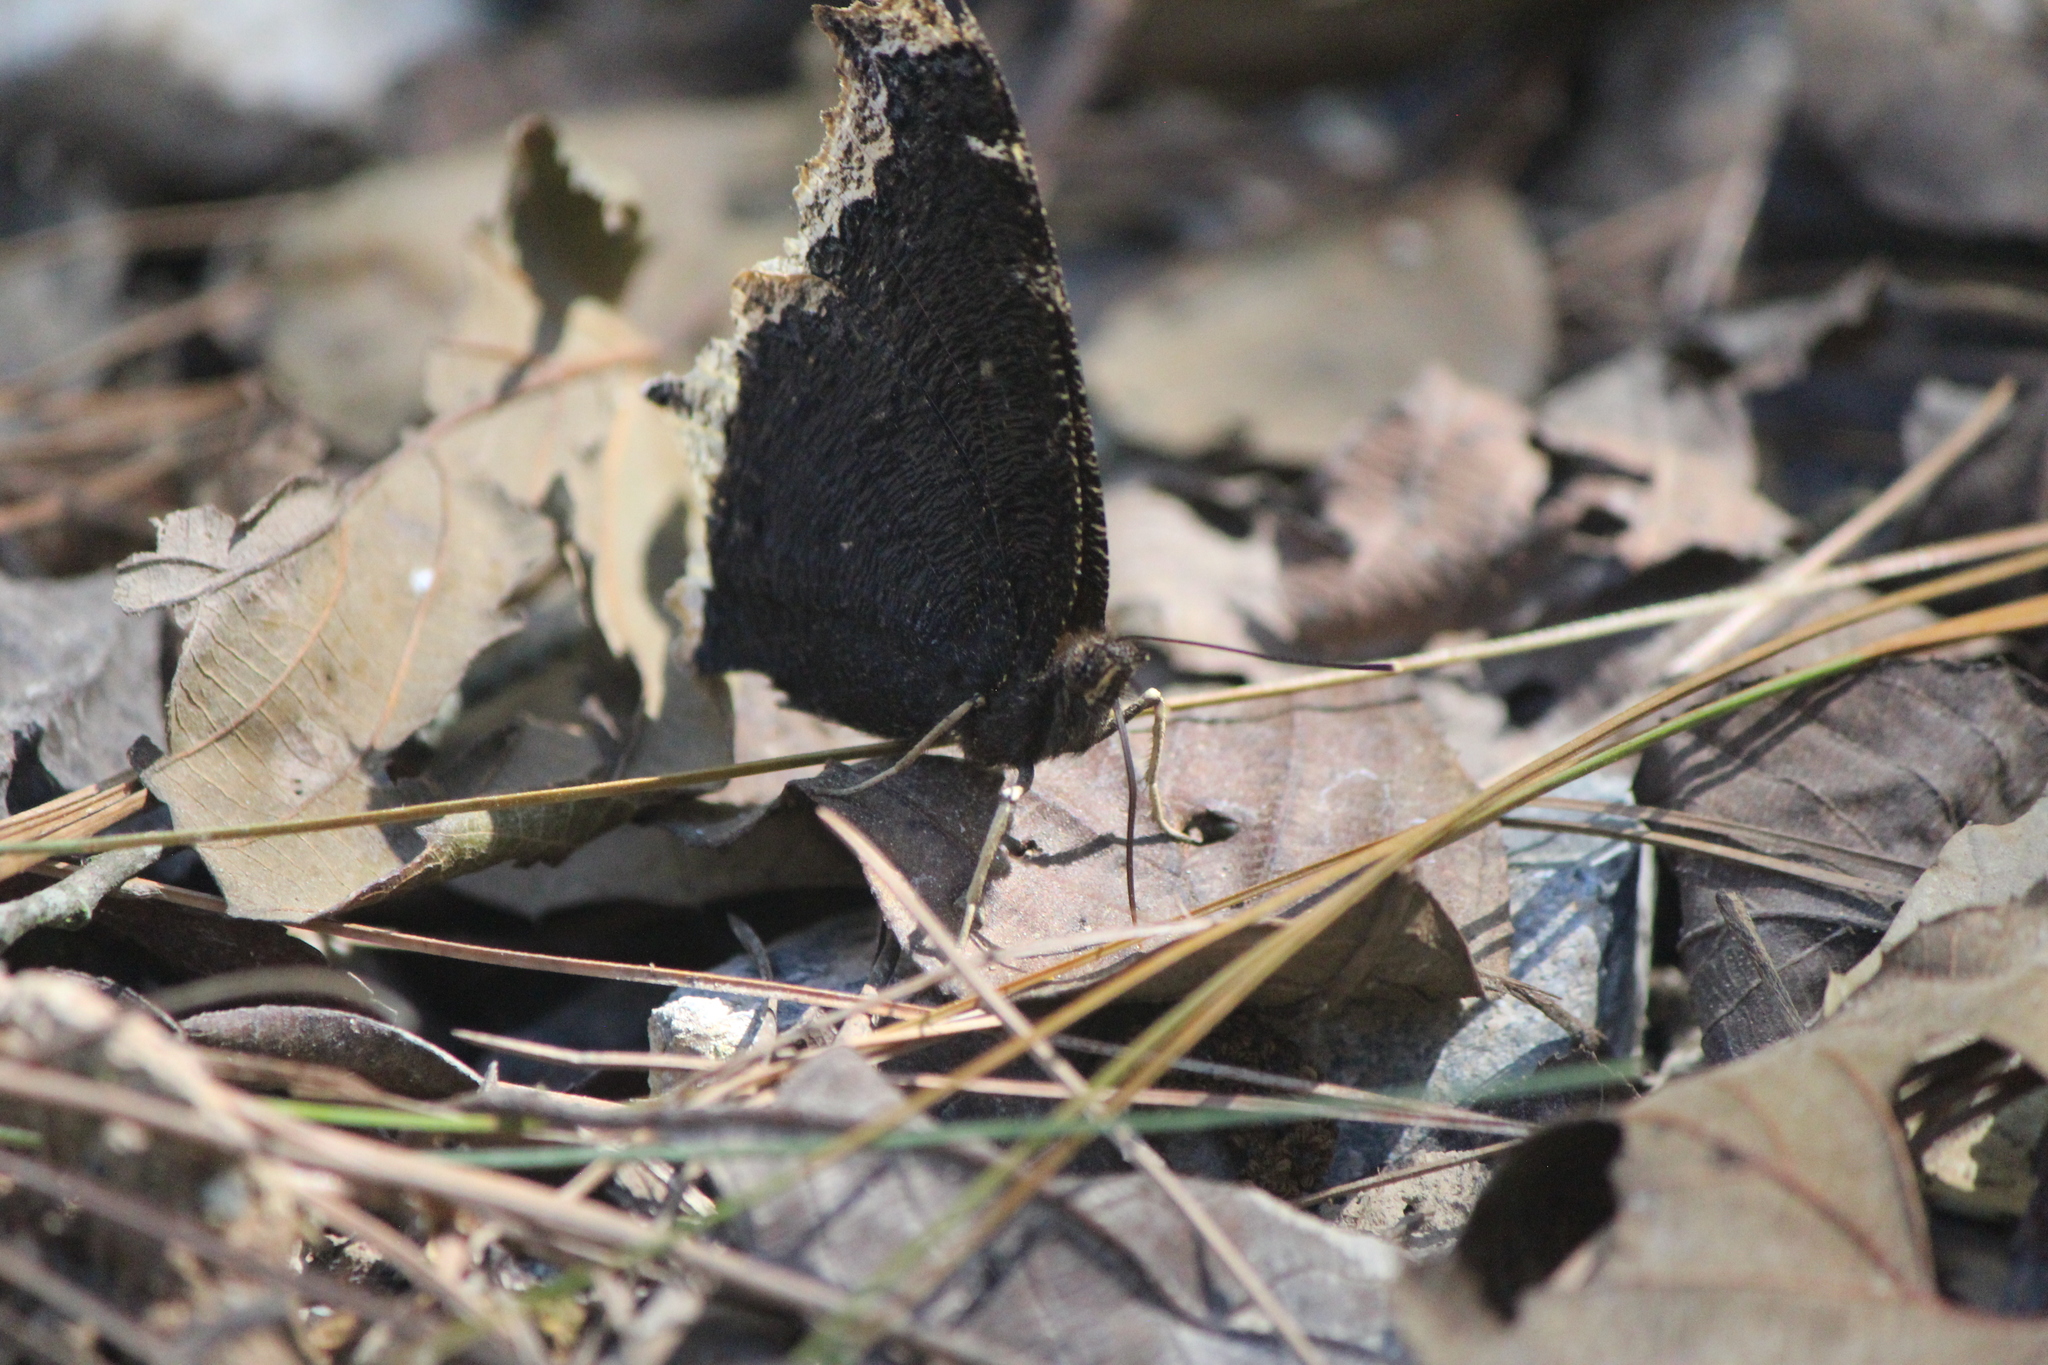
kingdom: Animalia
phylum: Arthropoda
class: Insecta
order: Lepidoptera
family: Nymphalidae
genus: Nymphalis
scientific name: Nymphalis antiopa
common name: Camberwell beauty
